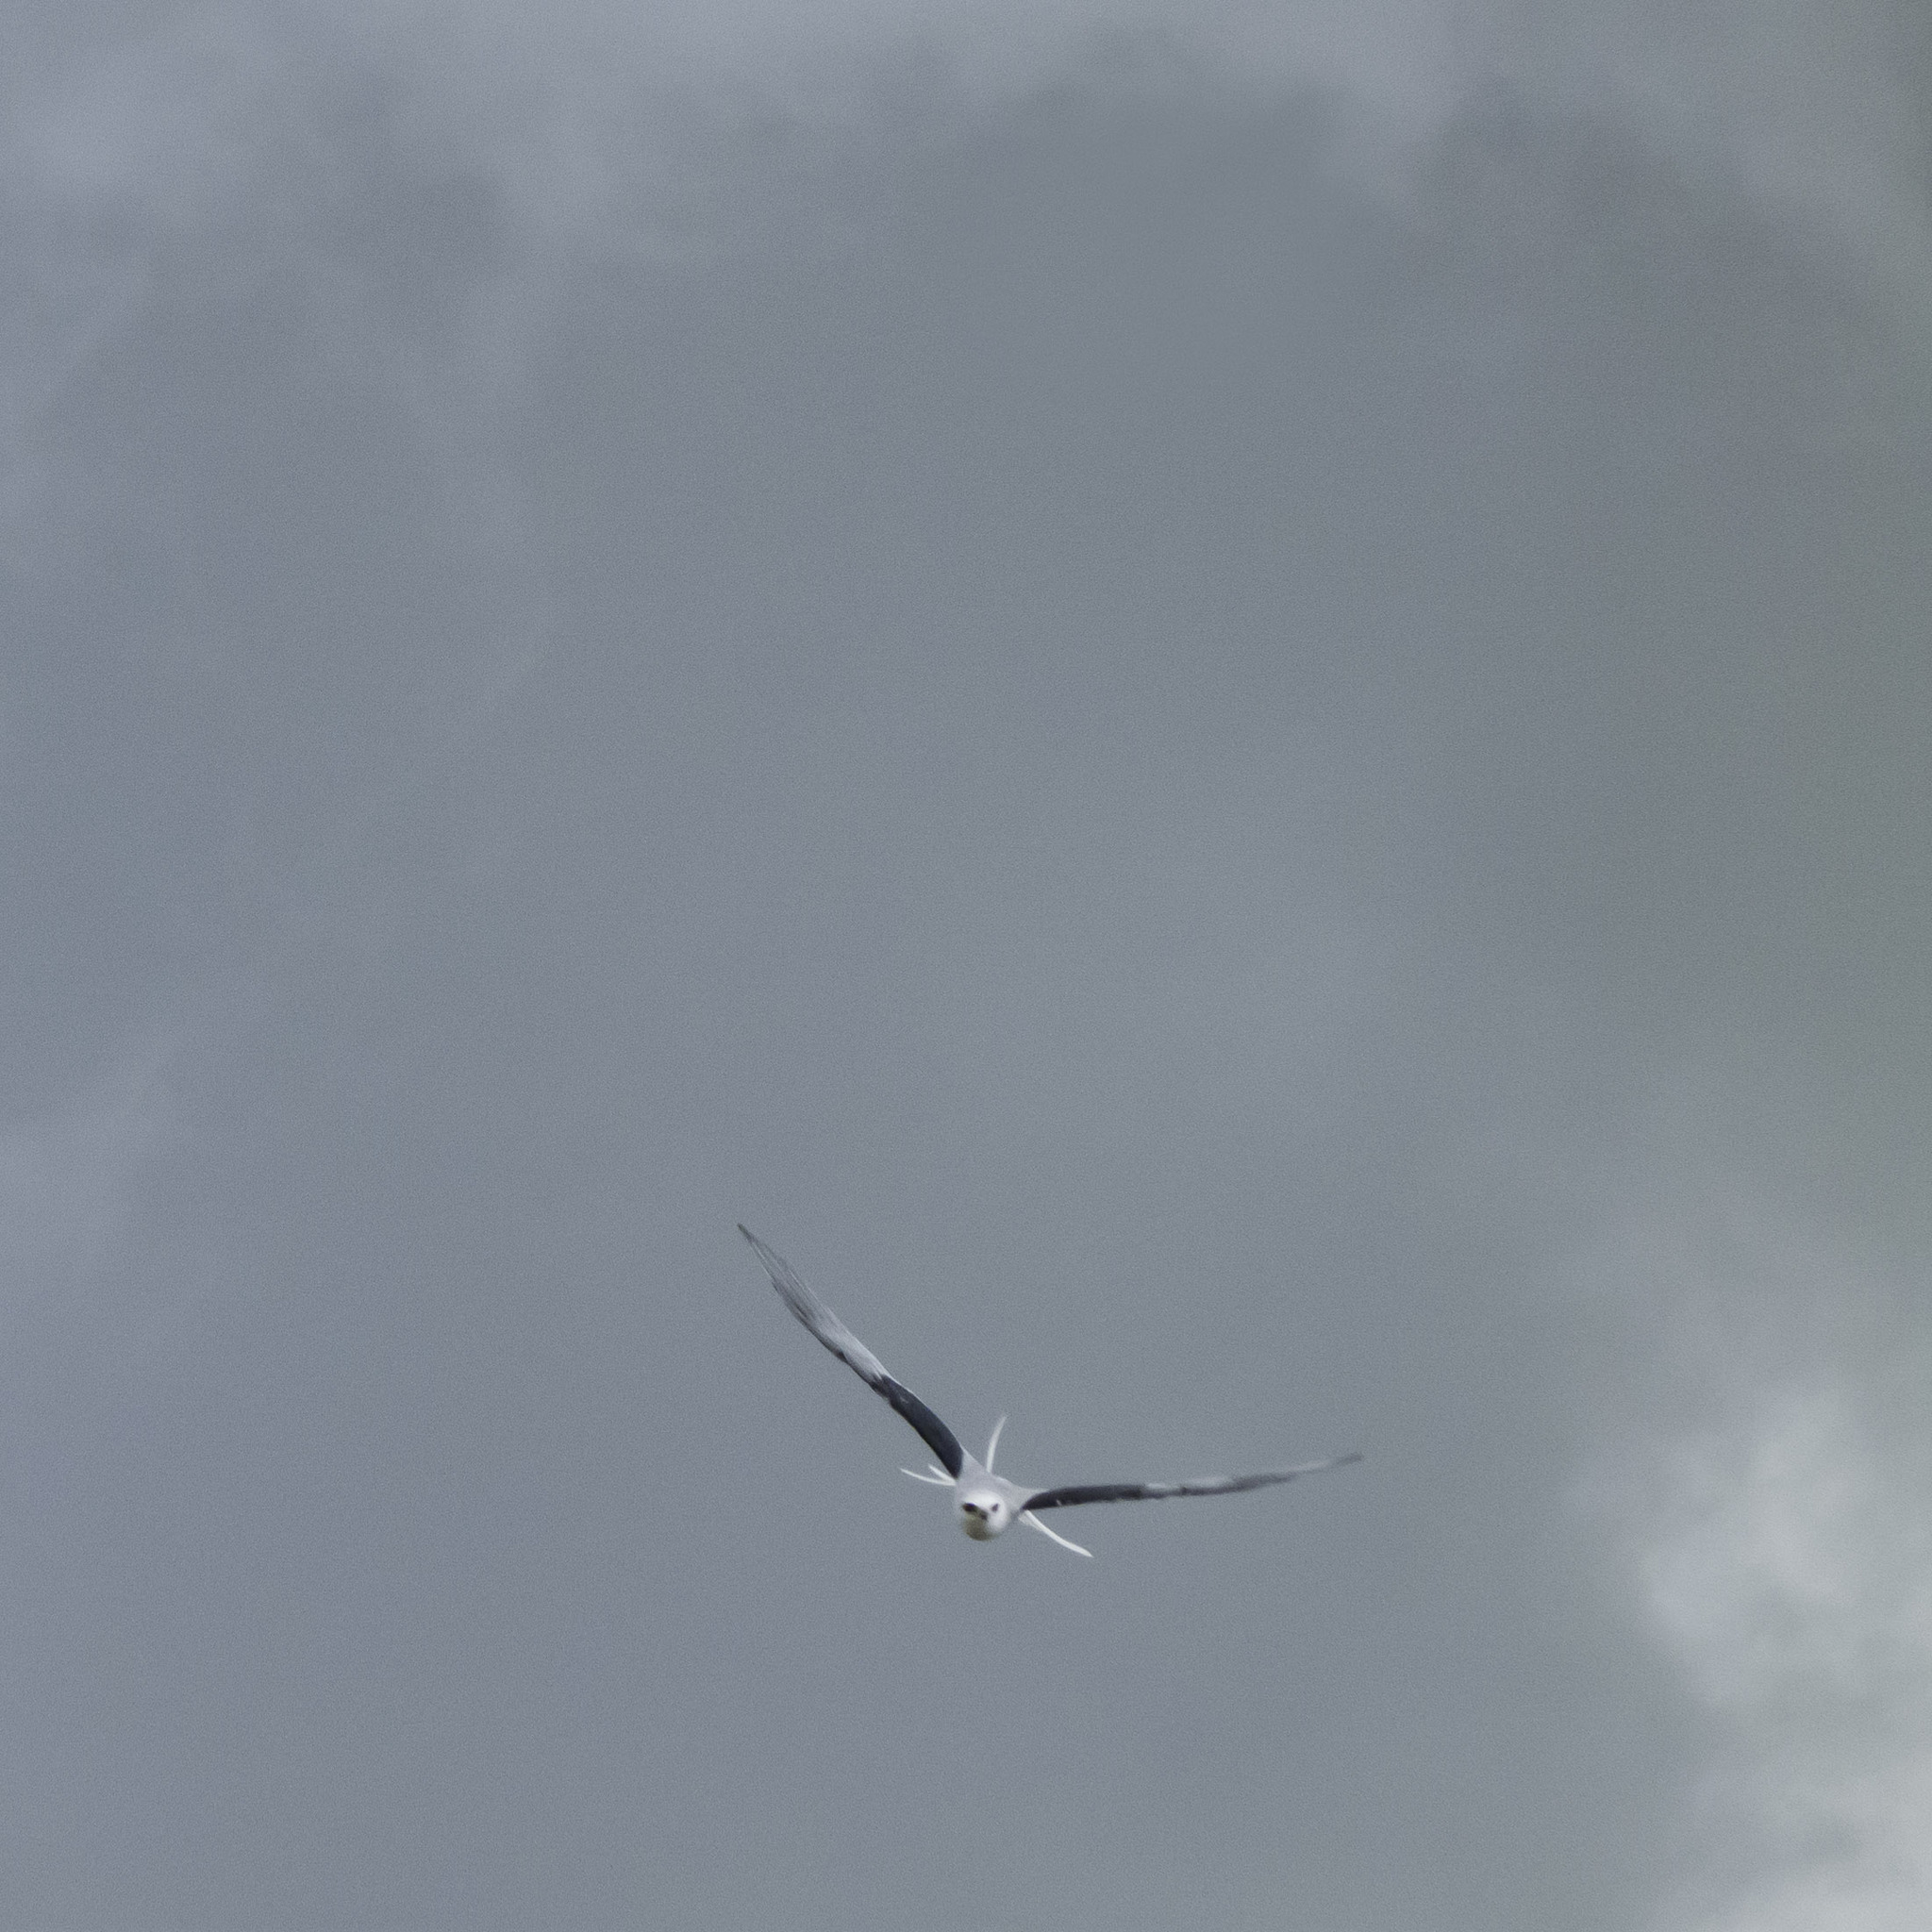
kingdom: Animalia
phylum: Chordata
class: Aves
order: Accipitriformes
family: Accipitridae
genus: Elanus
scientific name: Elanus leucurus
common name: White-tailed kite
